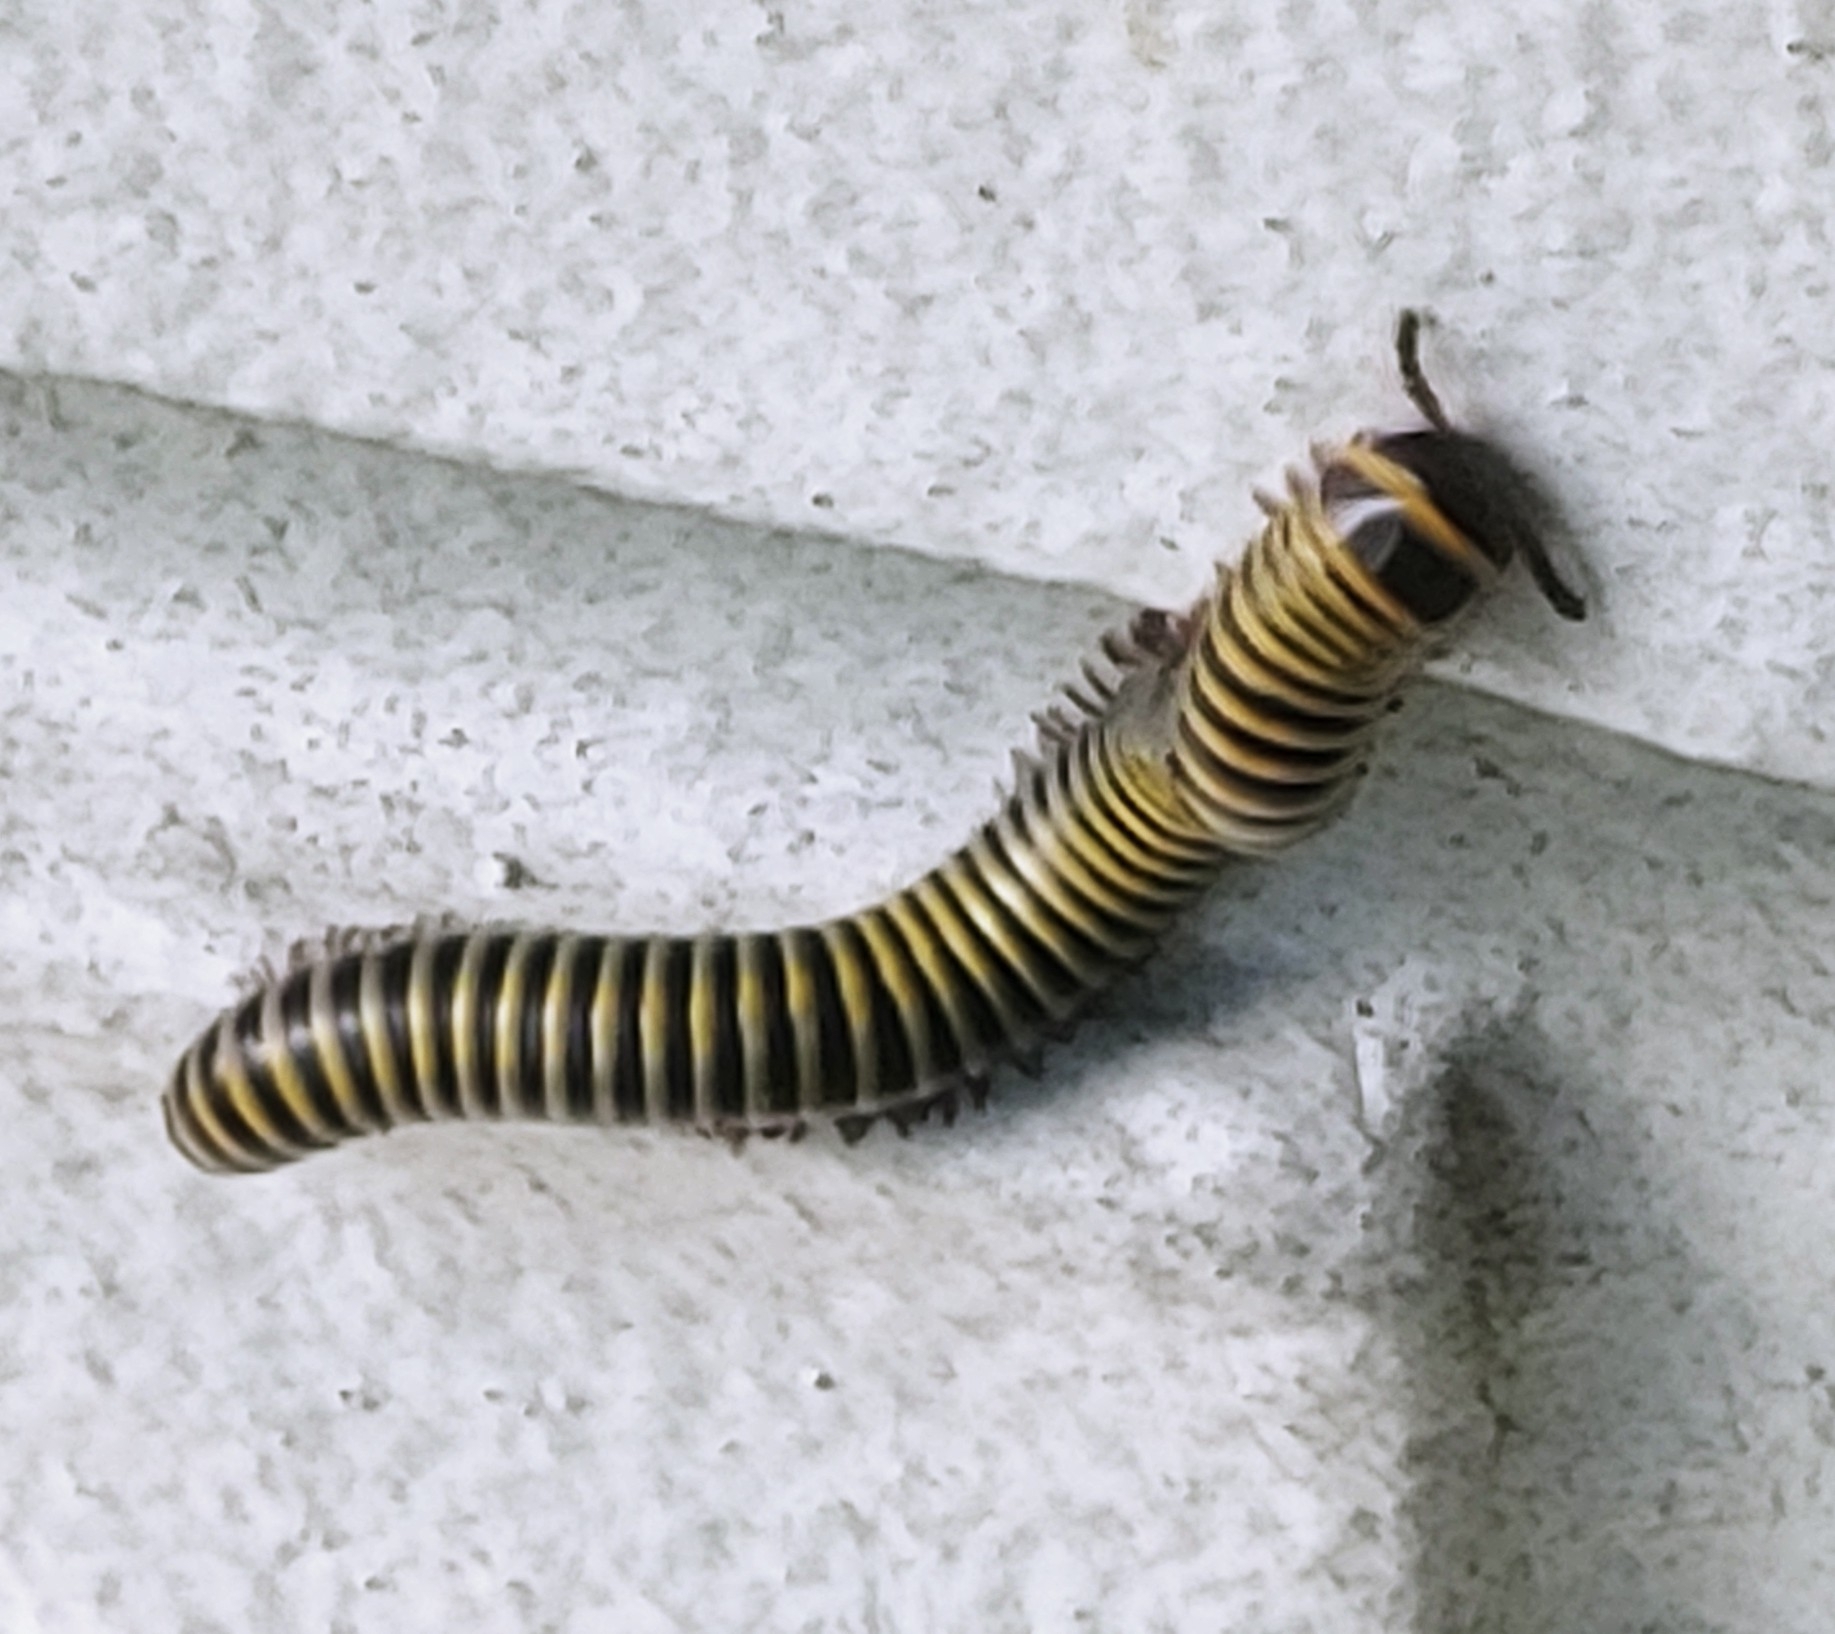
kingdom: Animalia
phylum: Arthropoda
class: Diplopoda
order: Spirobolida
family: Rhinocricidae
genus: Anadenobolus
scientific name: Anadenobolus monilicornis
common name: Caribbean millipede
